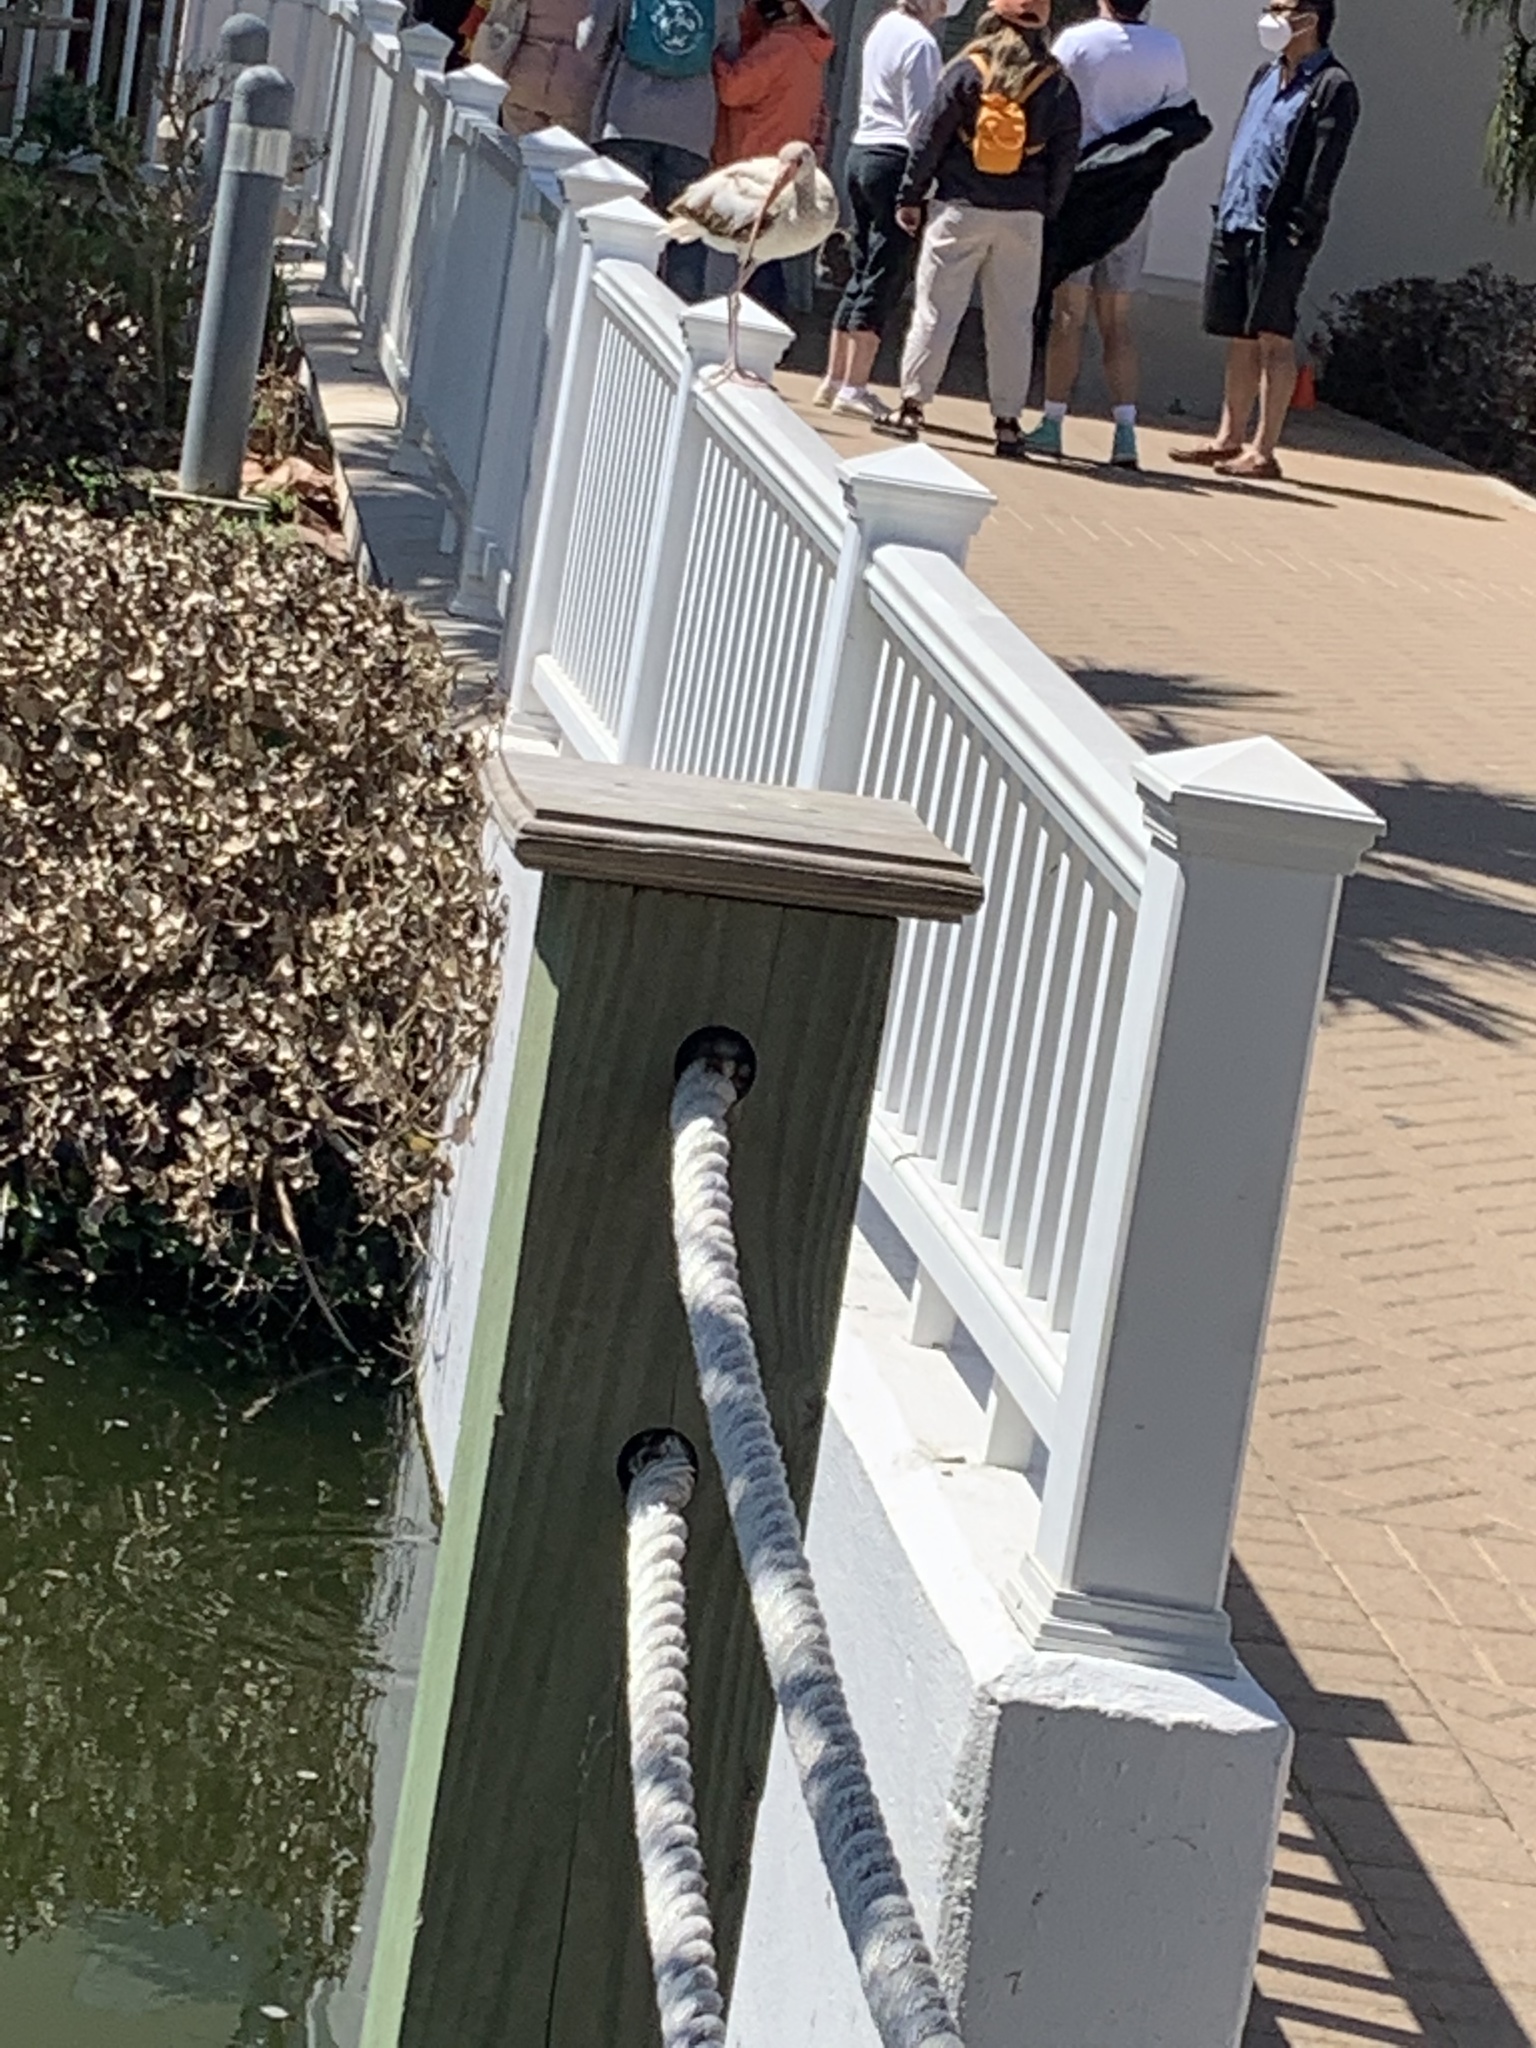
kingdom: Animalia
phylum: Chordata
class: Aves
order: Pelecaniformes
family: Threskiornithidae
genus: Eudocimus
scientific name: Eudocimus albus
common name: White ibis
